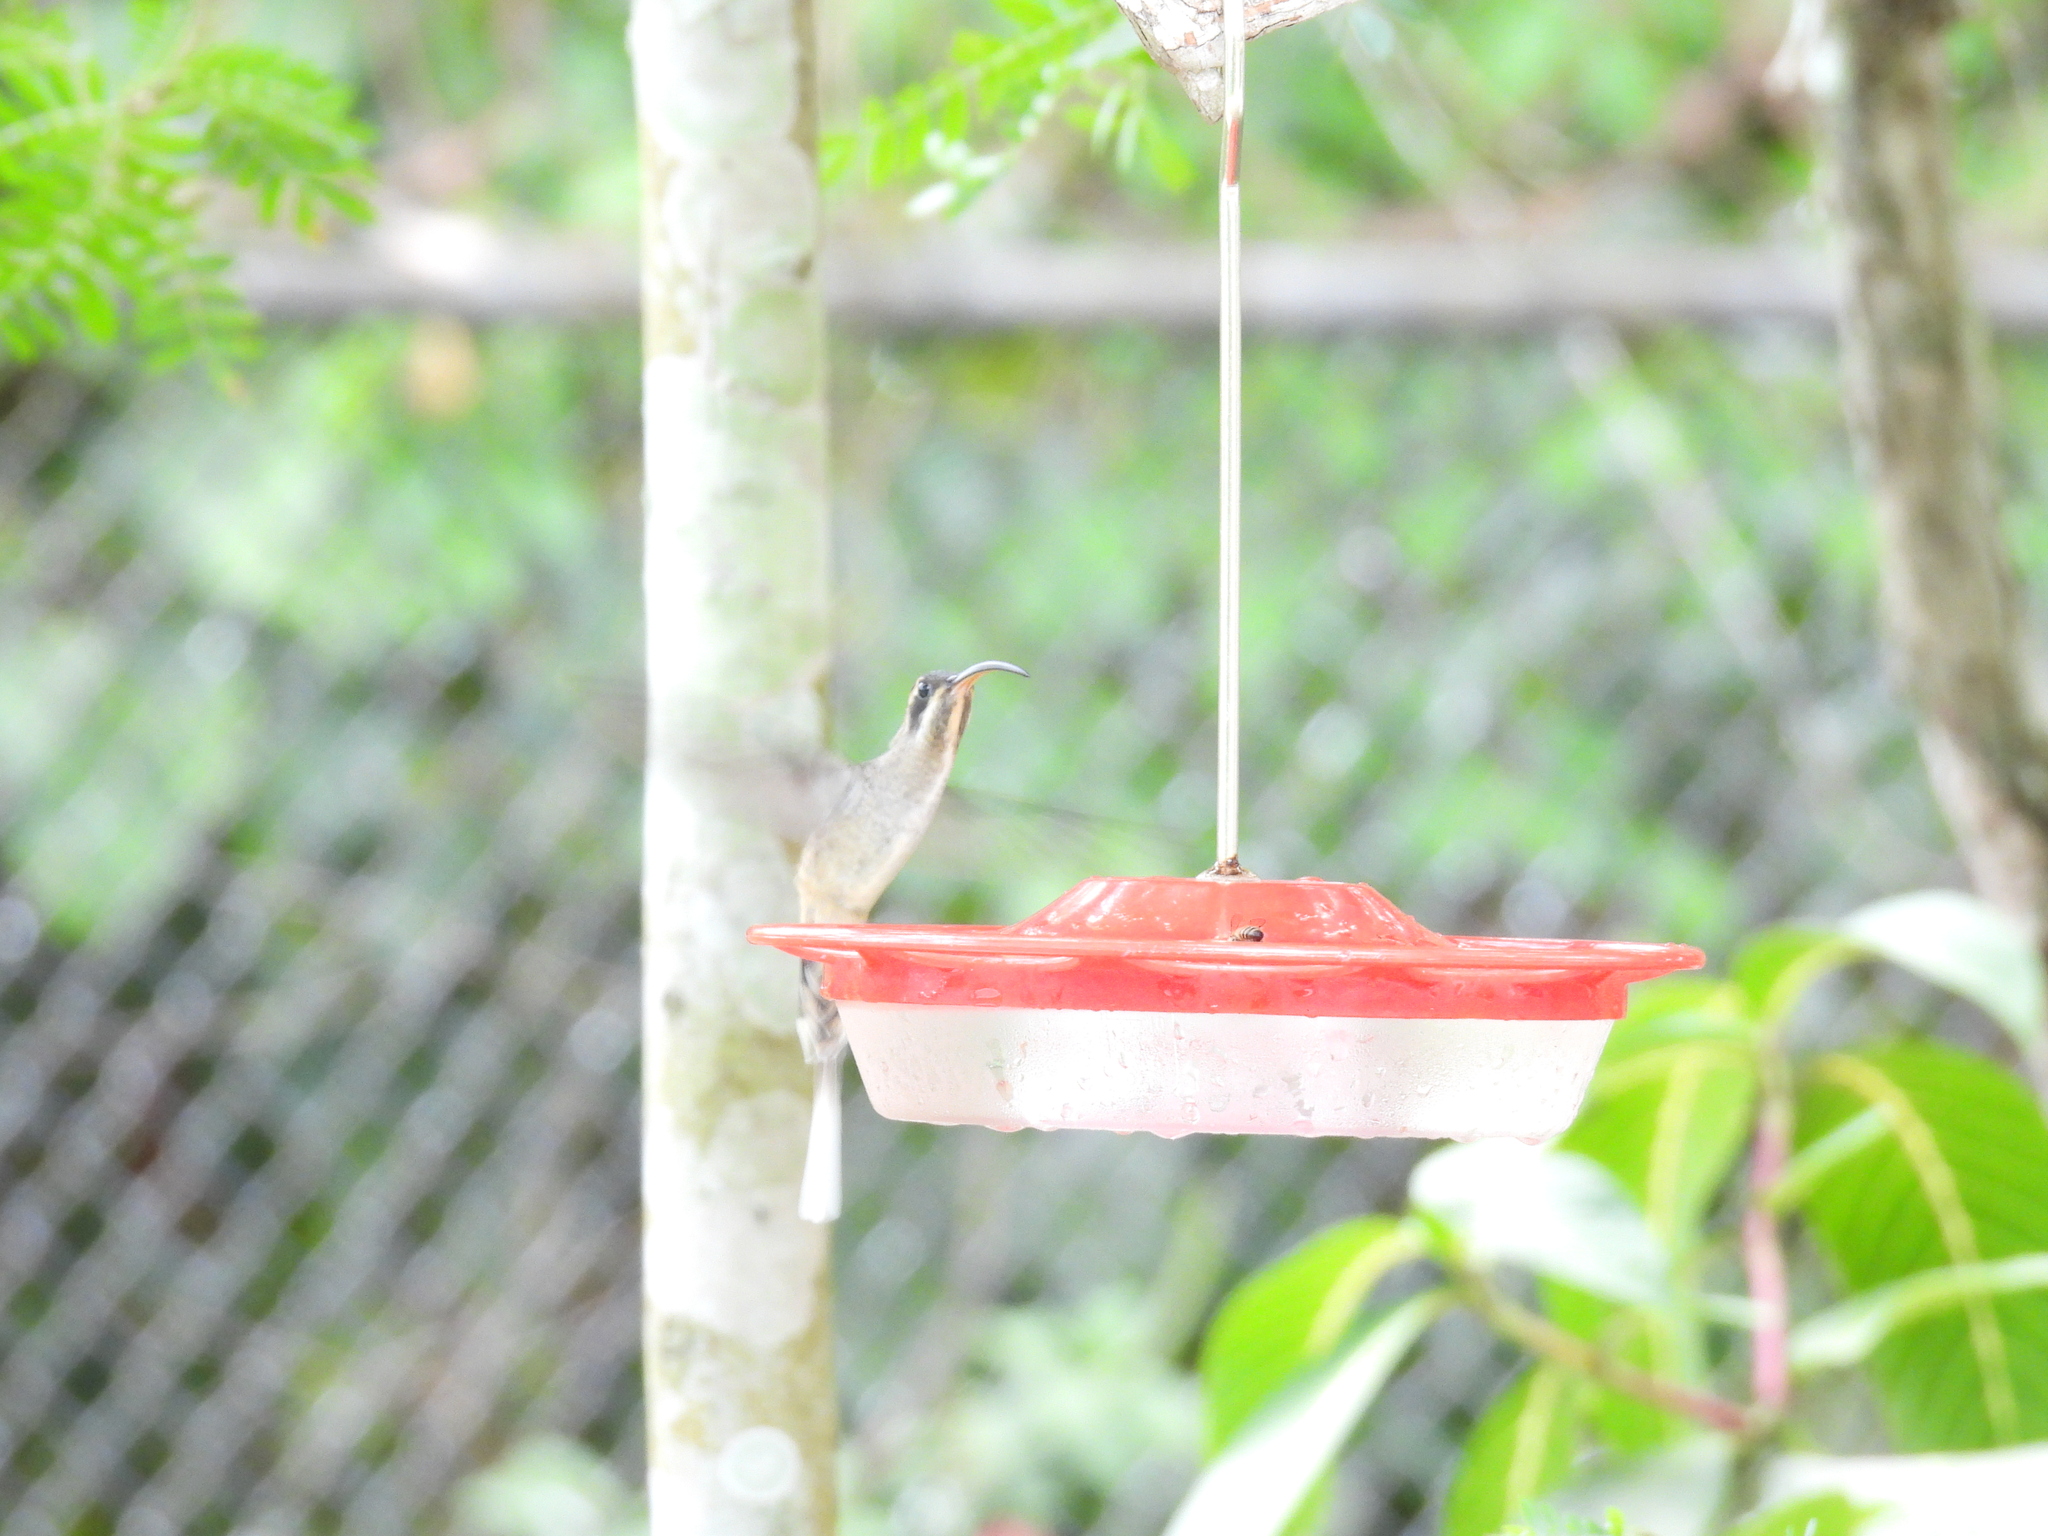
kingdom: Animalia
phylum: Chordata
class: Aves
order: Apodiformes
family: Trochilidae
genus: Phaethornis
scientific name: Phaethornis longirostris
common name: Long-billed hermit
